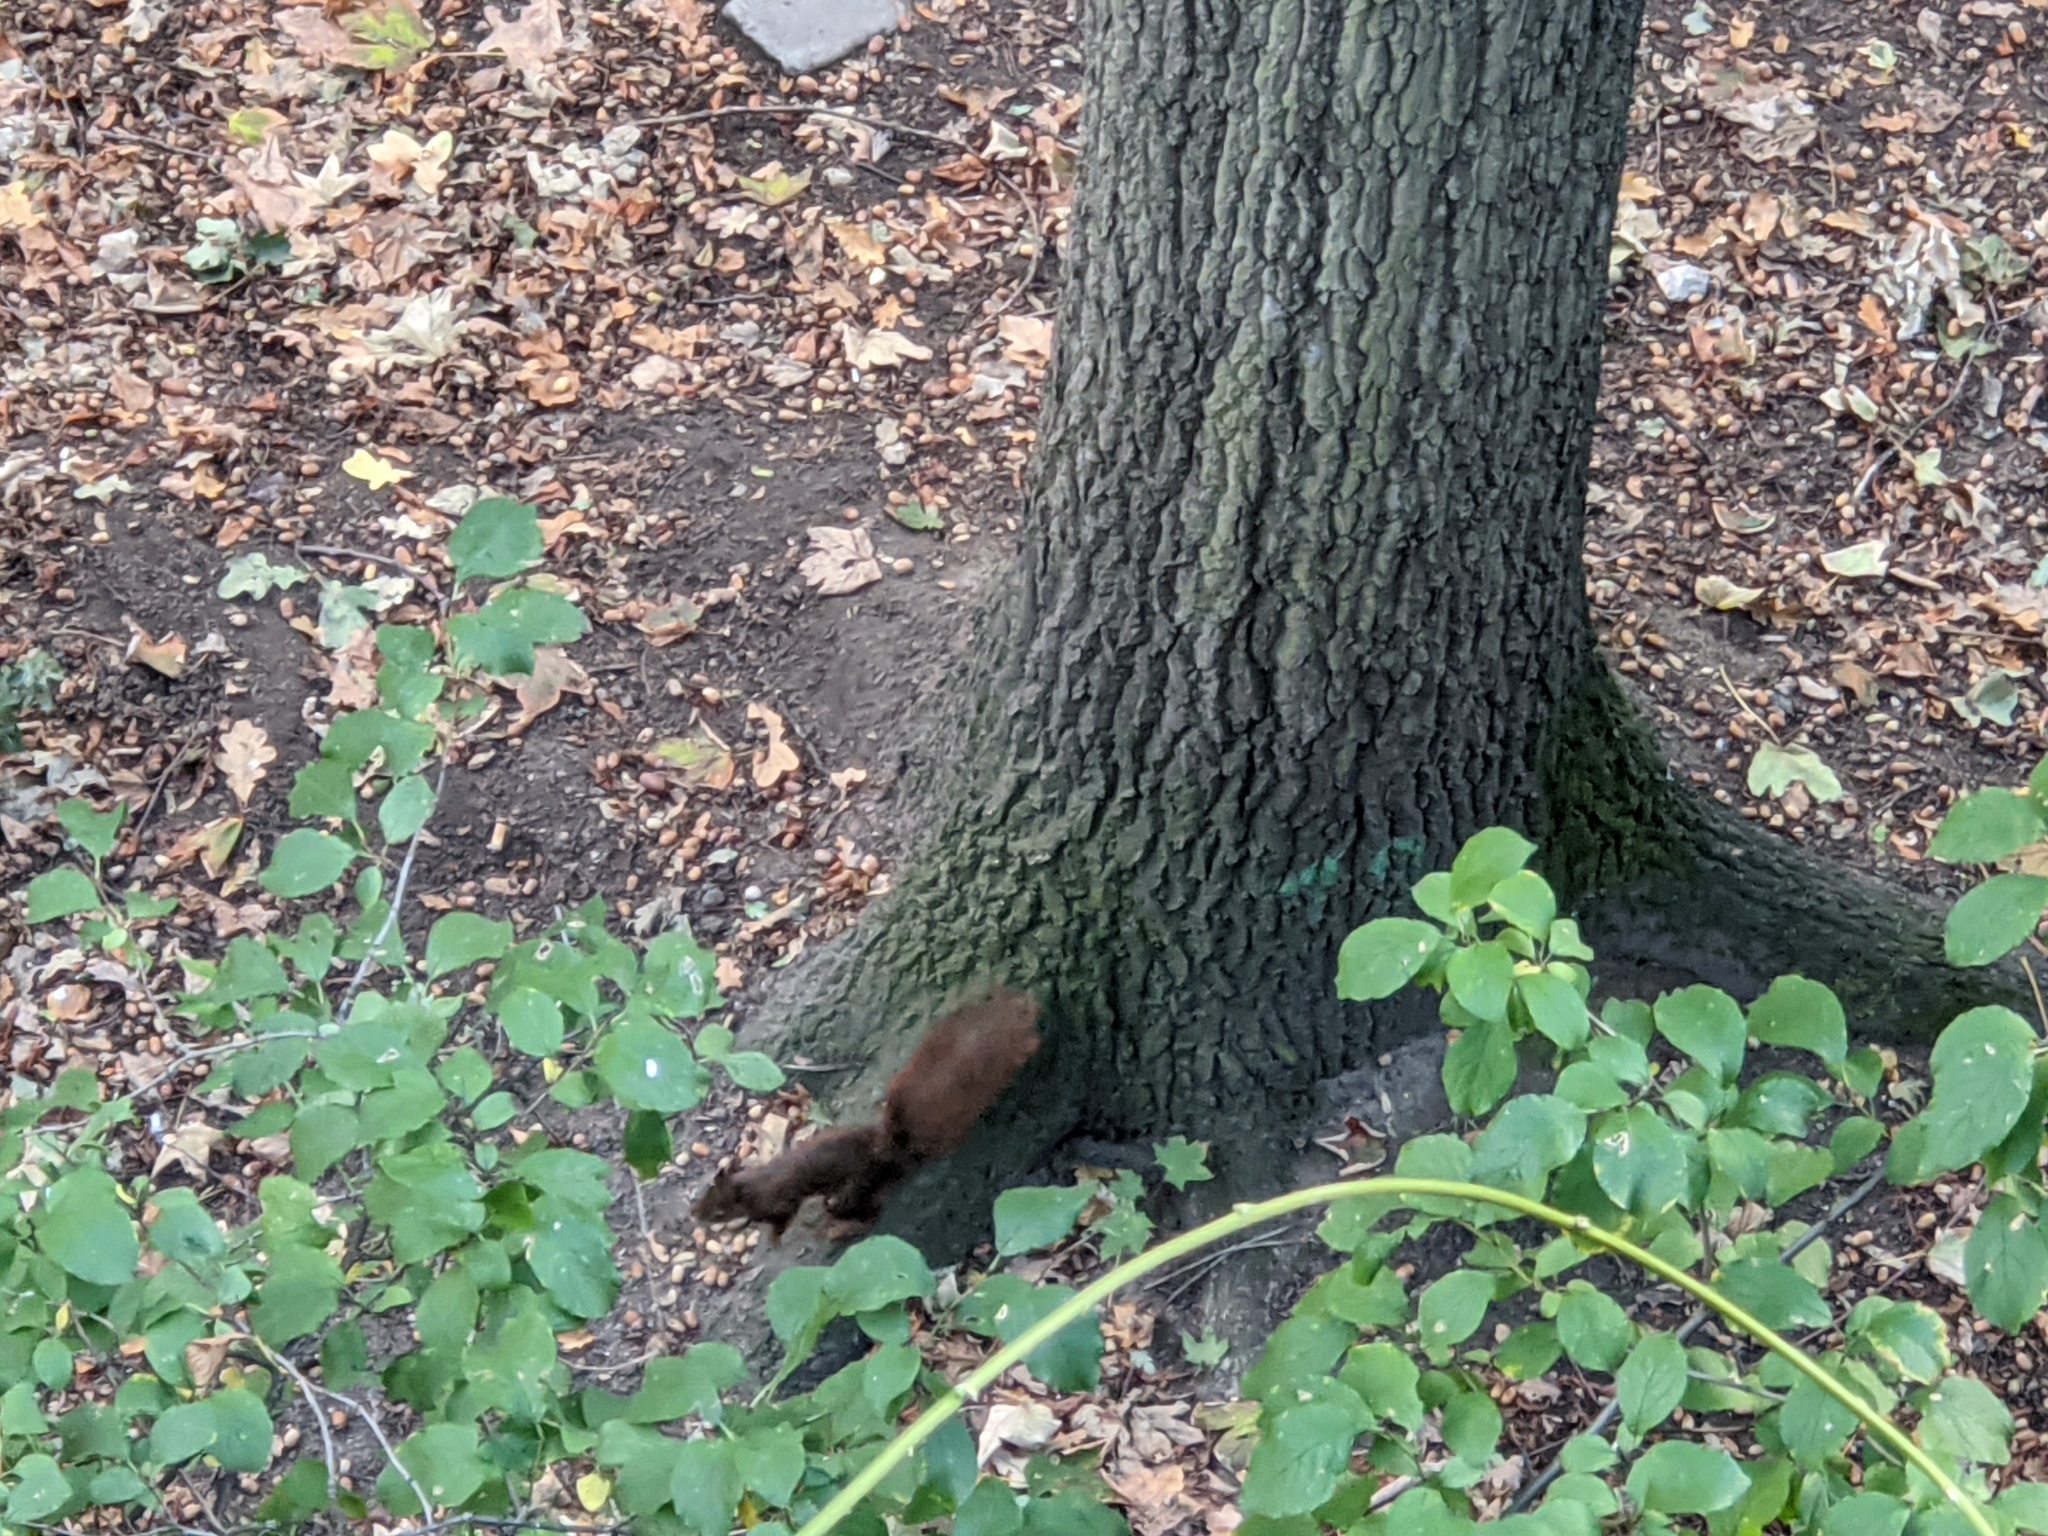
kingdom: Animalia
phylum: Chordata
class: Mammalia
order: Rodentia
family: Sciuridae
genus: Sciurus
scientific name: Sciurus vulgaris
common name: Eurasian red squirrel
